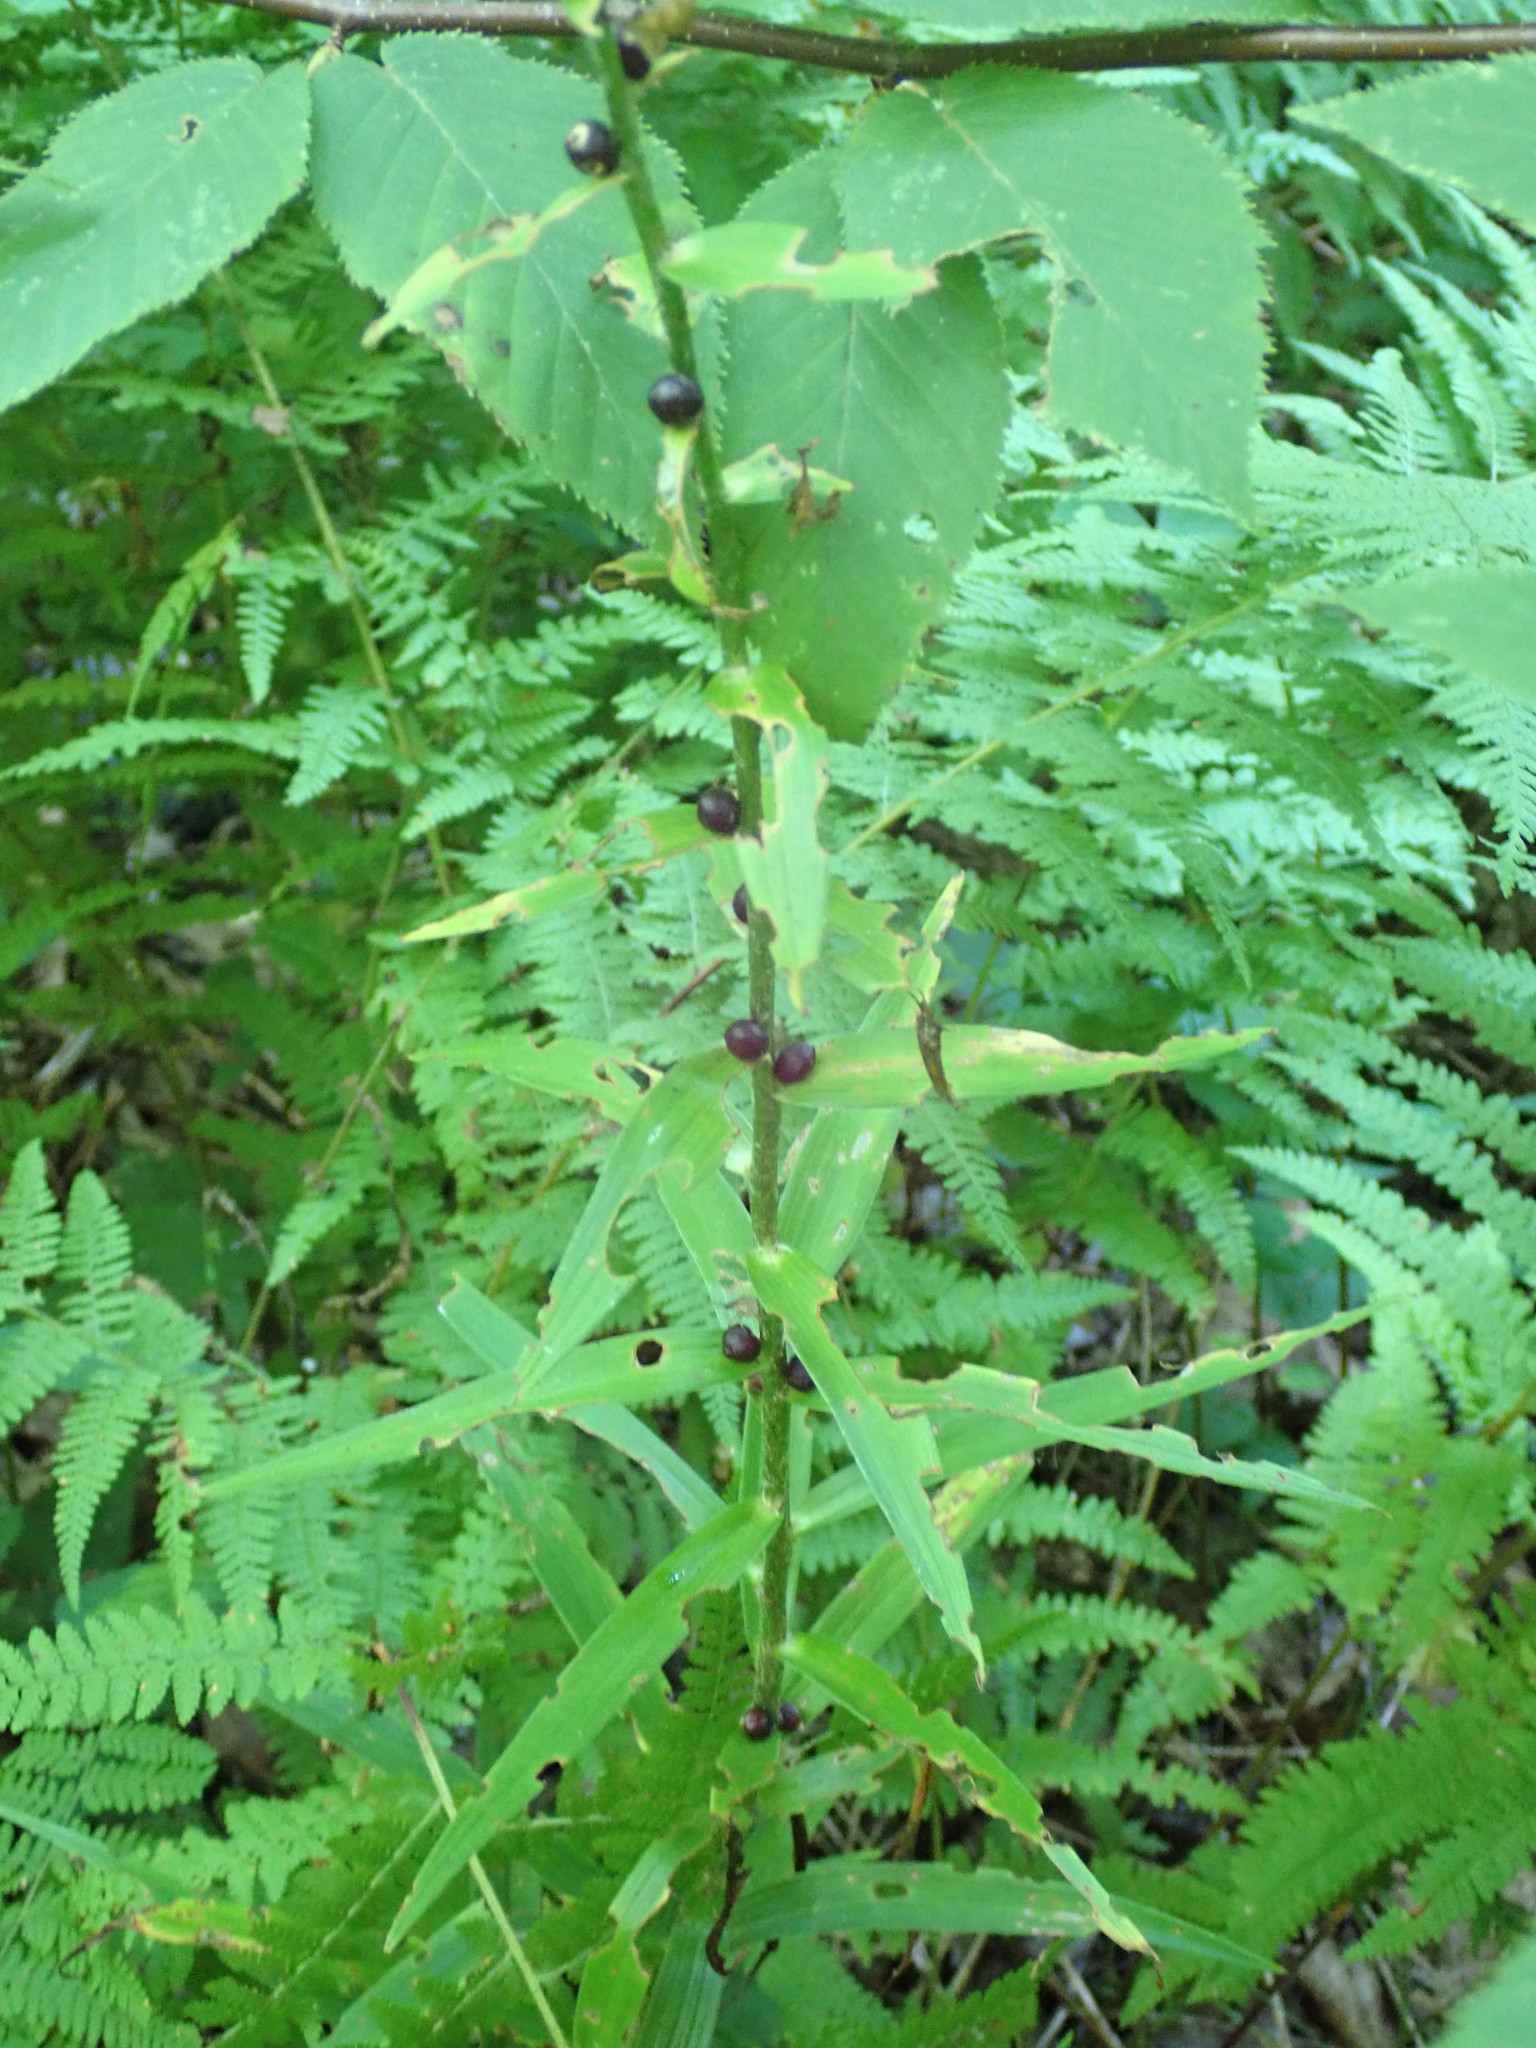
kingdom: Plantae
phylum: Tracheophyta
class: Liliopsida
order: Liliales
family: Liliaceae
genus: Lilium
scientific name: Lilium lancifolium
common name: Tiger lily
